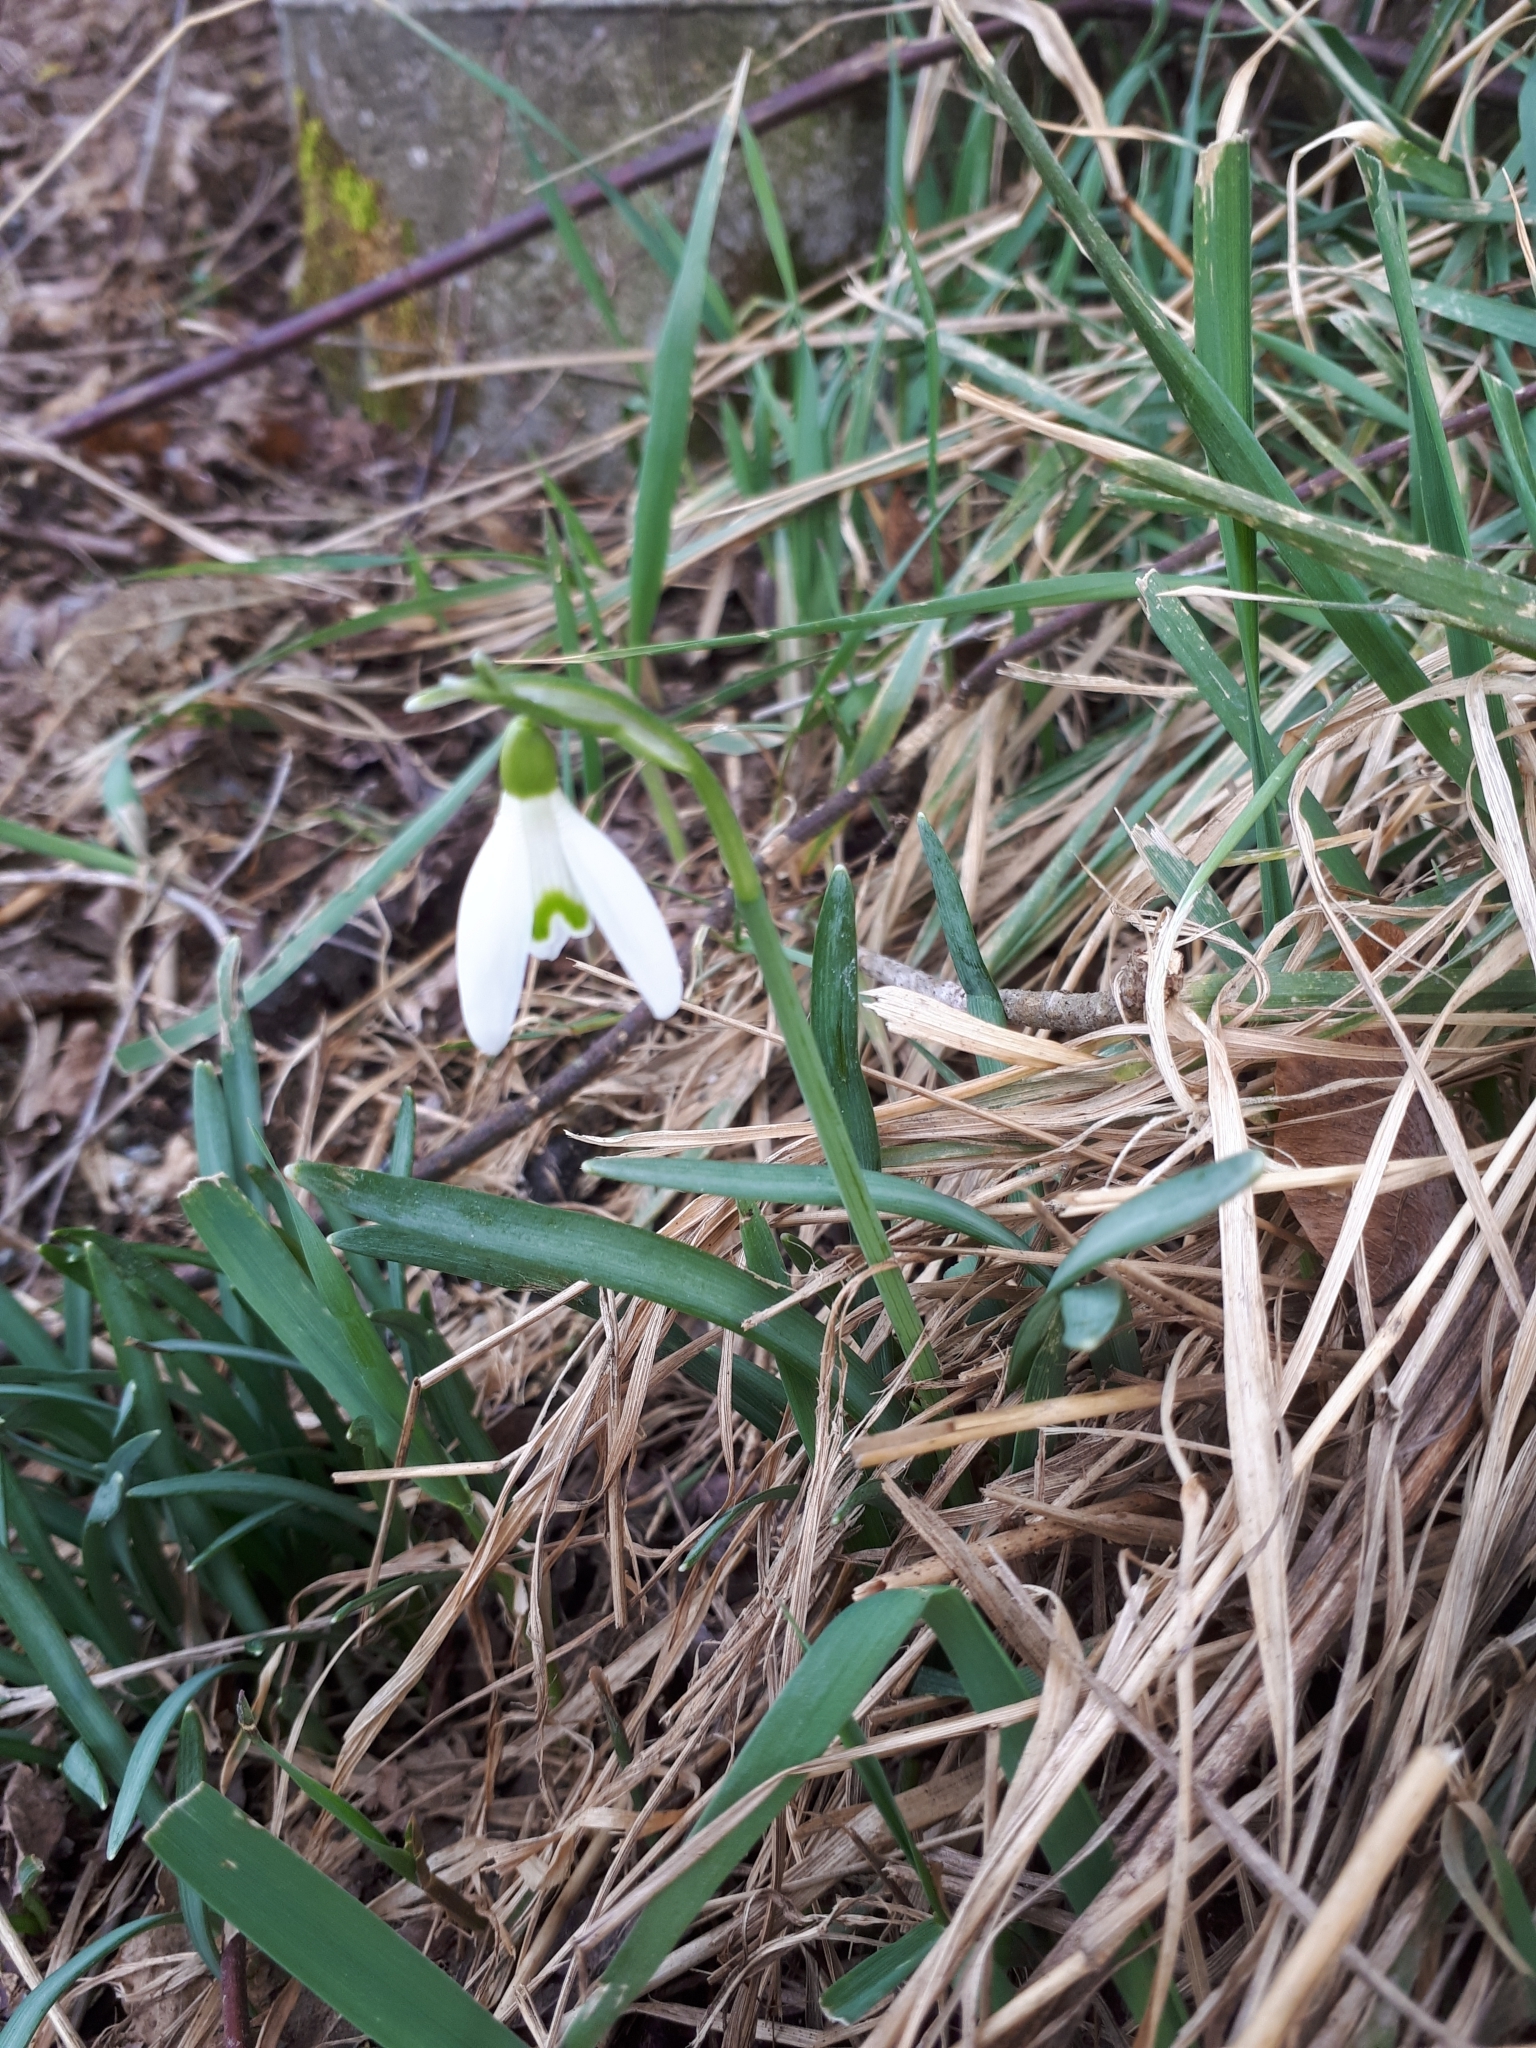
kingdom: Plantae
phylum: Tracheophyta
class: Liliopsida
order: Asparagales
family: Amaryllidaceae
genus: Galanthus
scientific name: Galanthus nivalis
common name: Snowdrop
